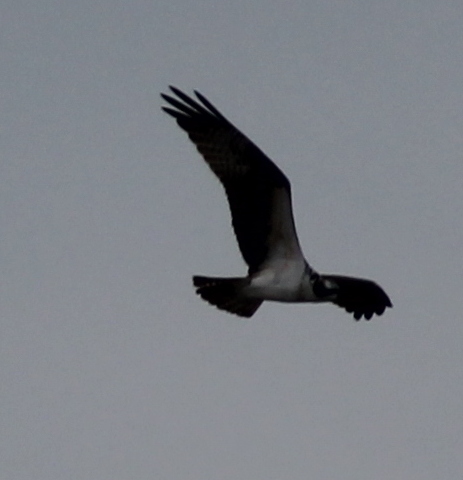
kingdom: Animalia
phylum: Chordata
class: Aves
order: Accipitriformes
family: Pandionidae
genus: Pandion
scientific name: Pandion haliaetus
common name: Osprey
